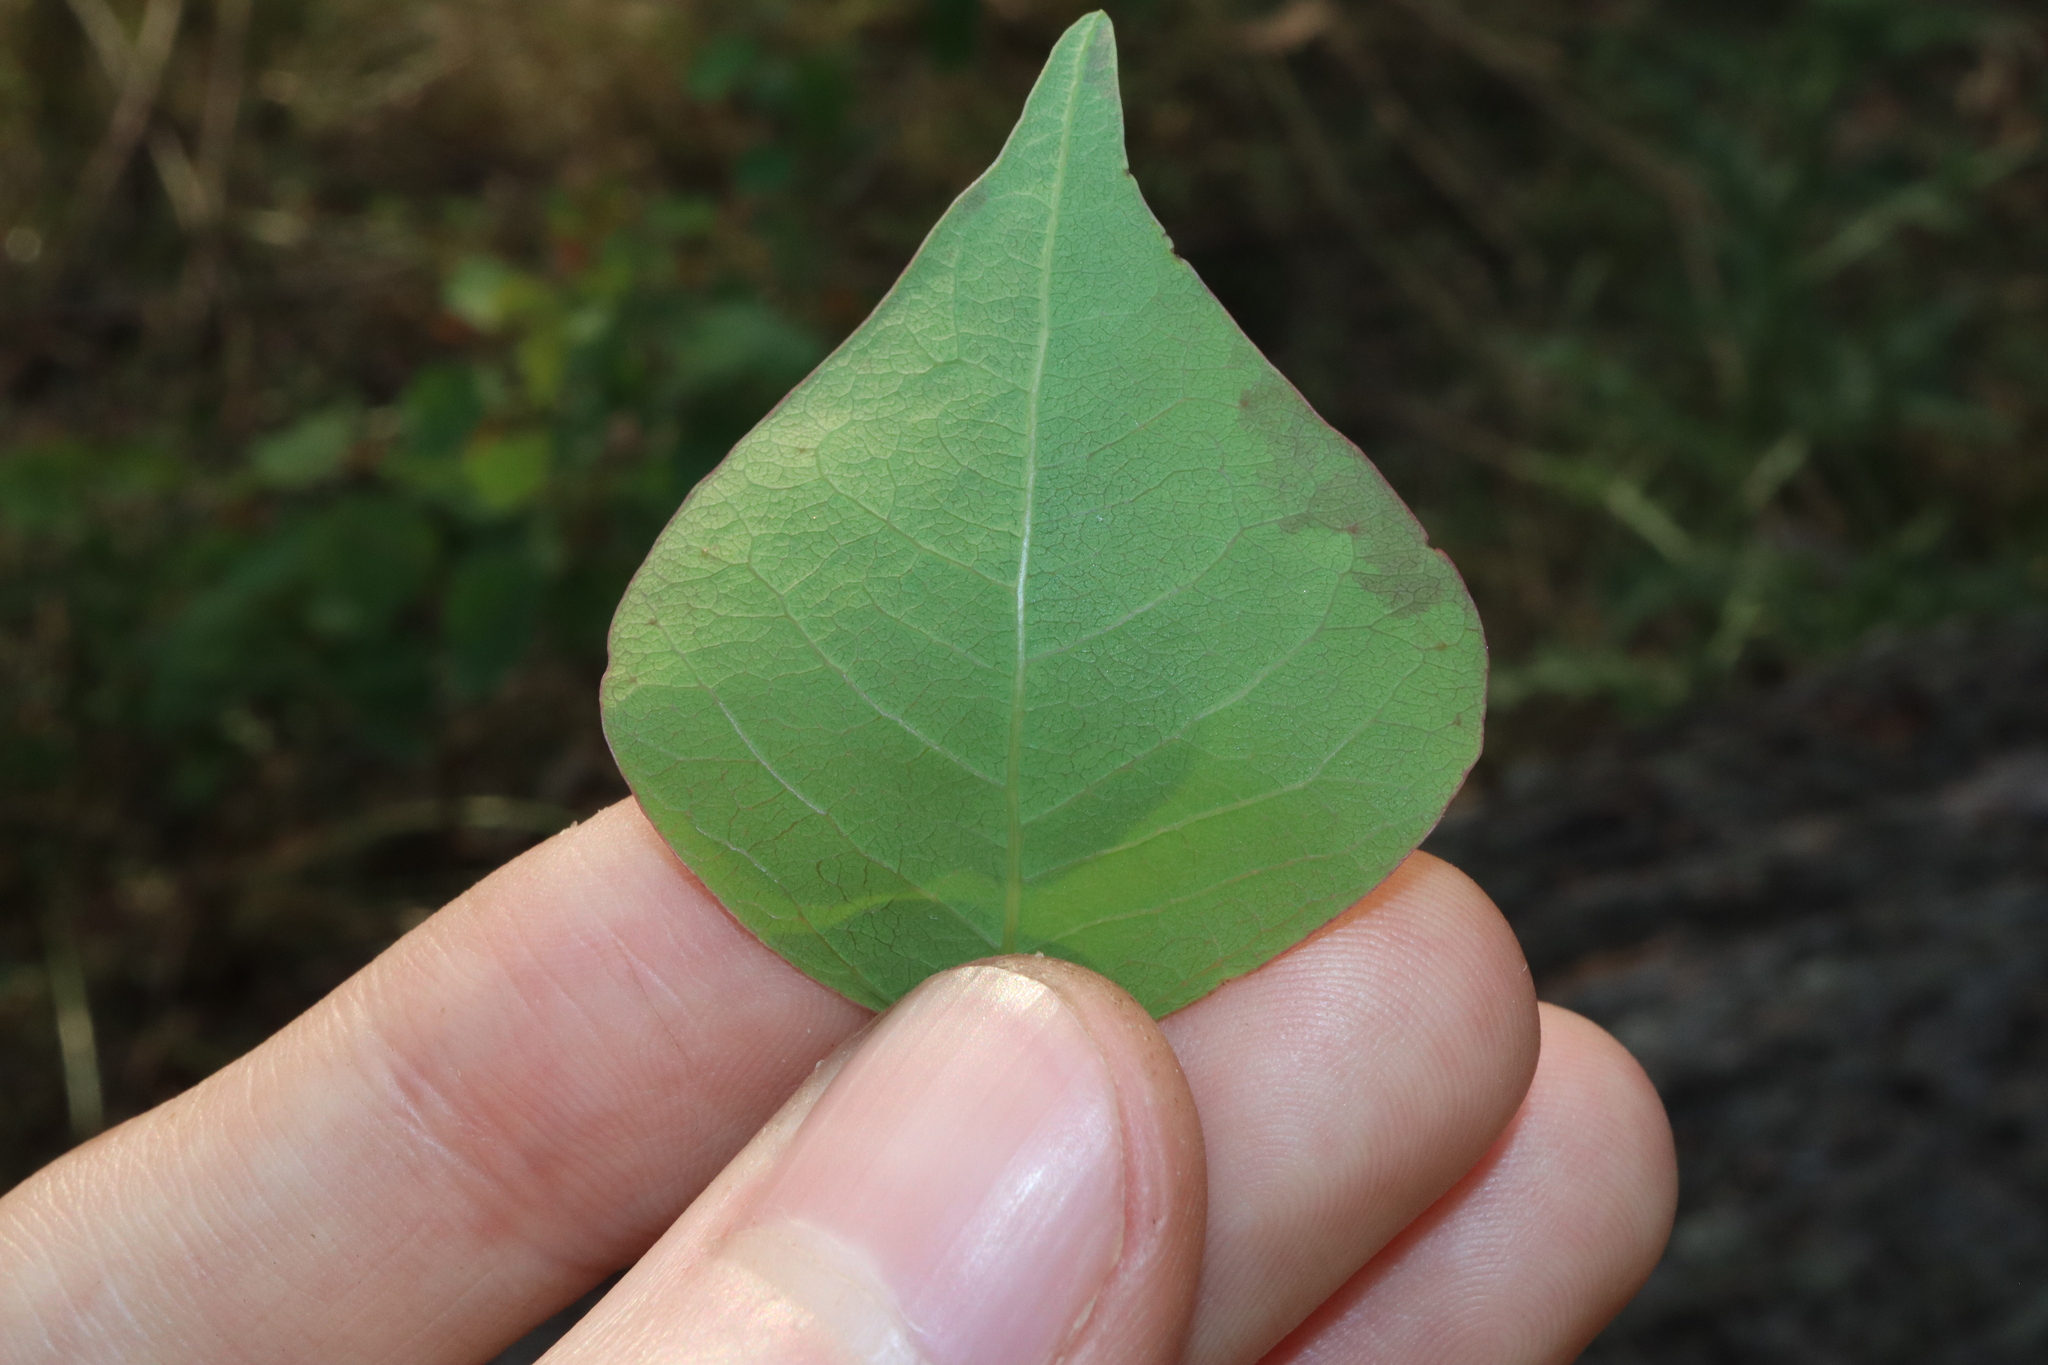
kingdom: Plantae
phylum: Tracheophyta
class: Magnoliopsida
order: Malpighiales
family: Euphorbiaceae
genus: Homalanthus
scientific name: Homalanthus populifolius
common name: Queensland poplar
